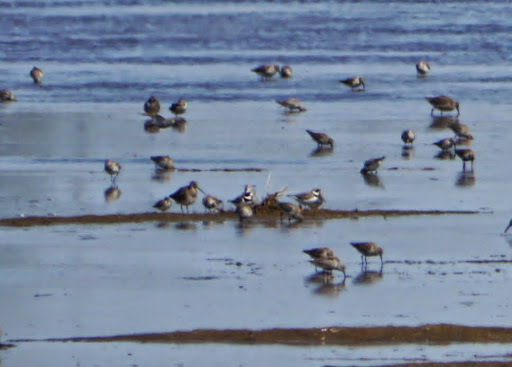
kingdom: Animalia
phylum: Chordata
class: Aves
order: Charadriiformes
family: Charadriidae
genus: Charadrius
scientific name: Charadrius semipalmatus
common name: Semipalmated plover
